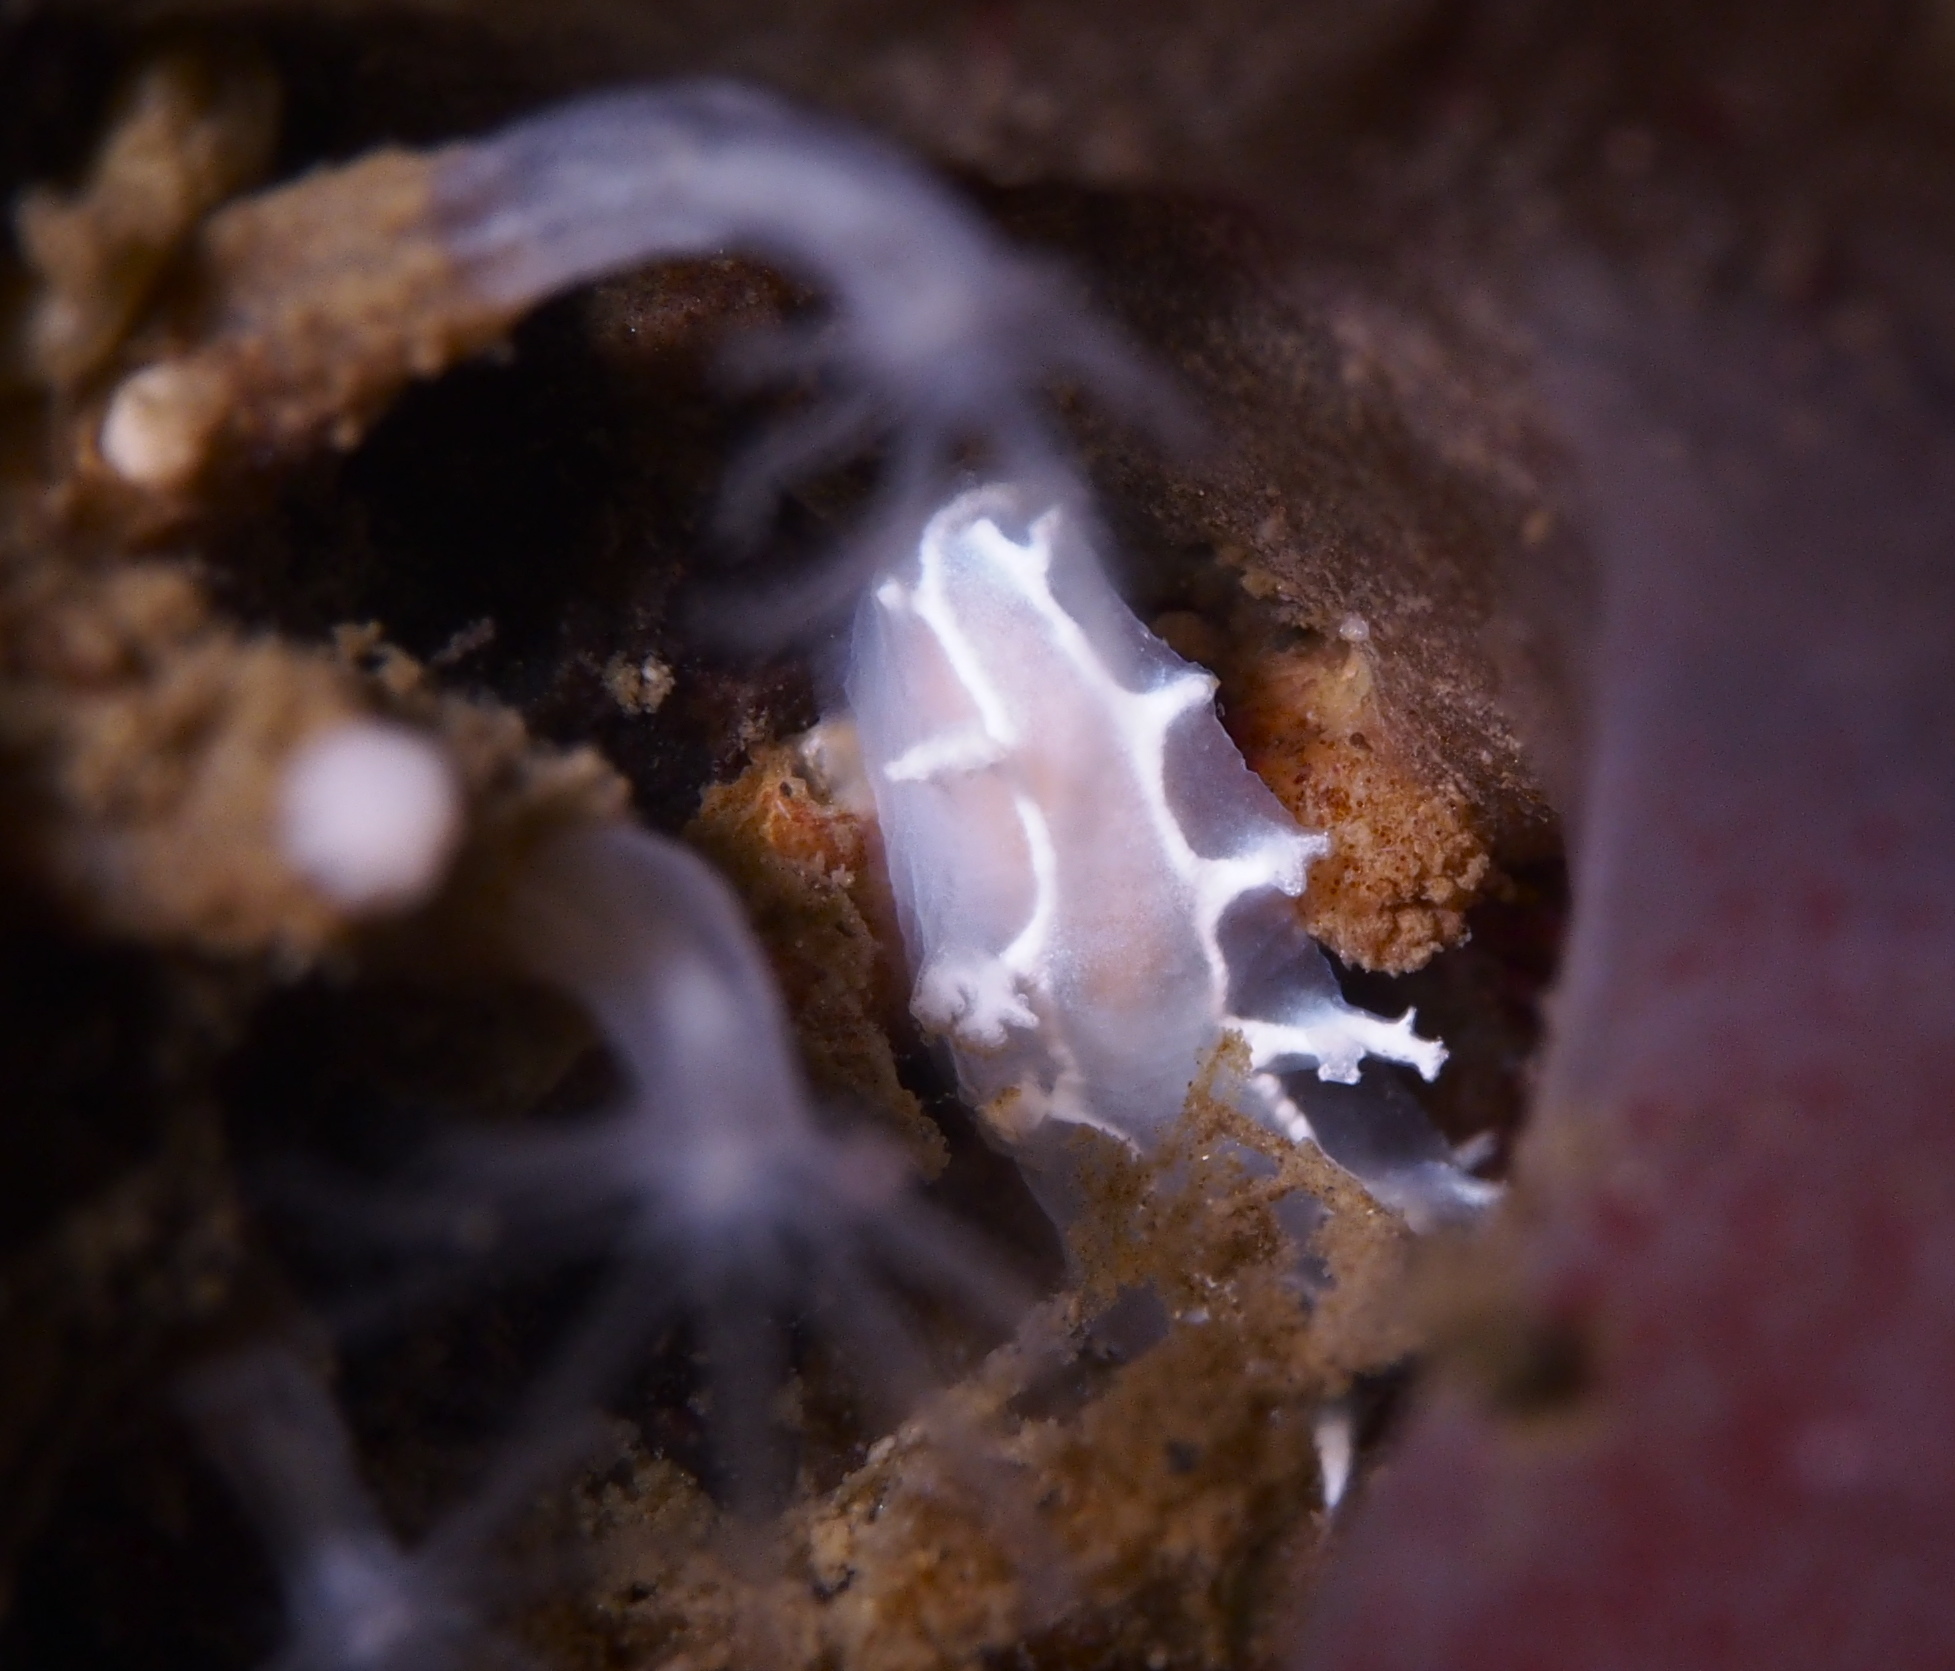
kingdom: Animalia
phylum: Mollusca
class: Gastropoda
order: Nudibranchia
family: Tritoniidae
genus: Duvaucelia
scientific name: Duvaucelia lineata
